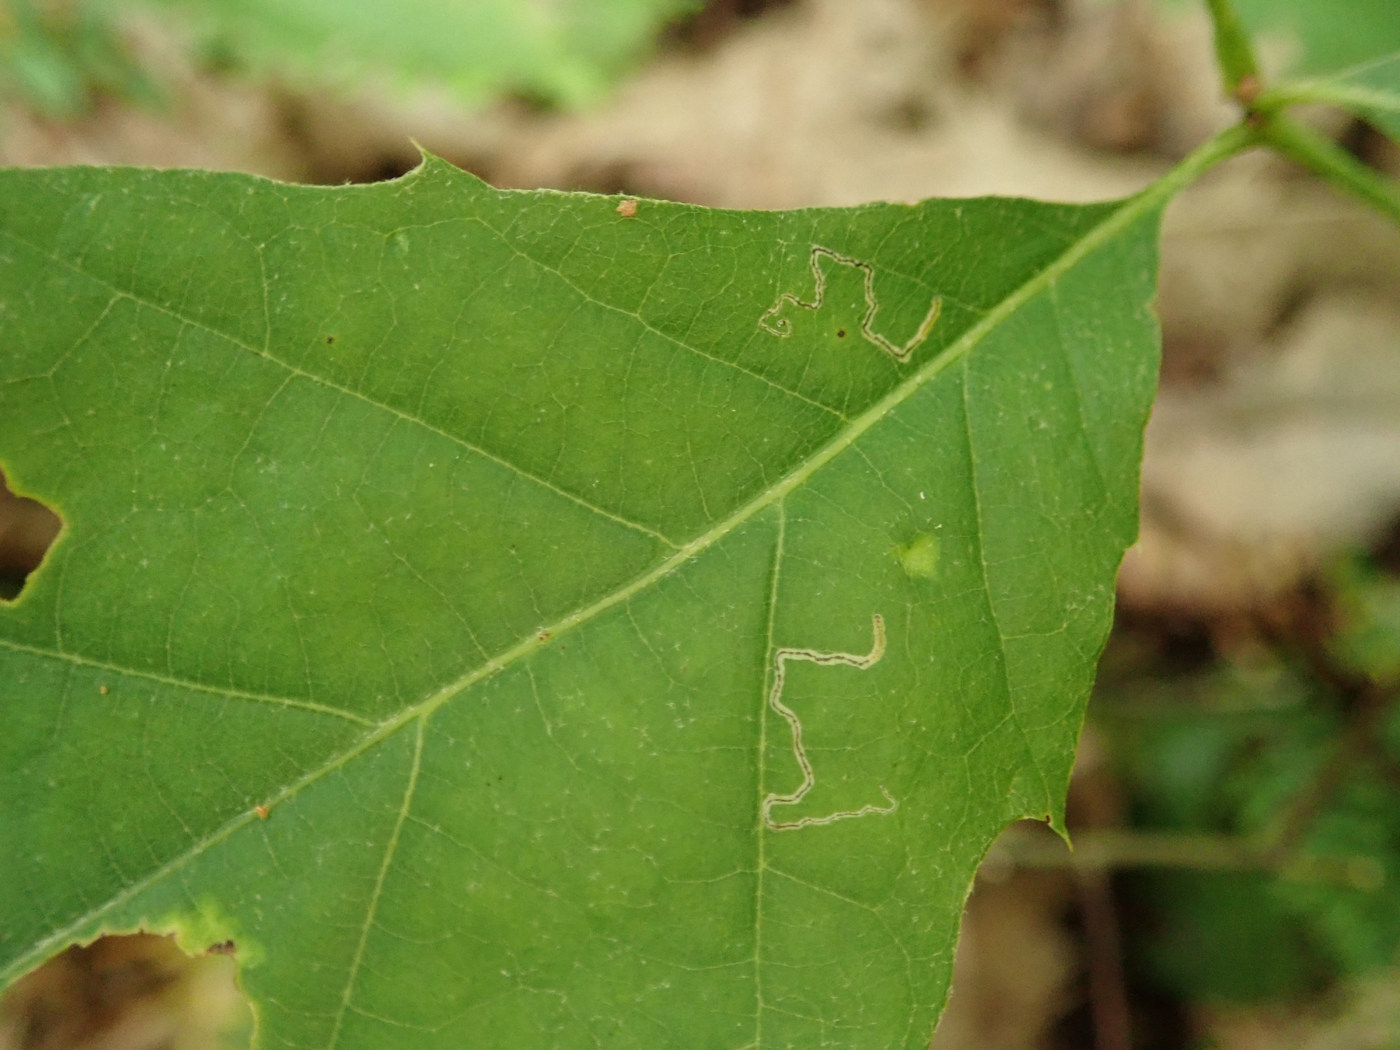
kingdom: Animalia
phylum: Arthropoda
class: Insecta
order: Lepidoptera
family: Nepticulidae
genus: Stigmella
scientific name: Stigmella quercipulchella
